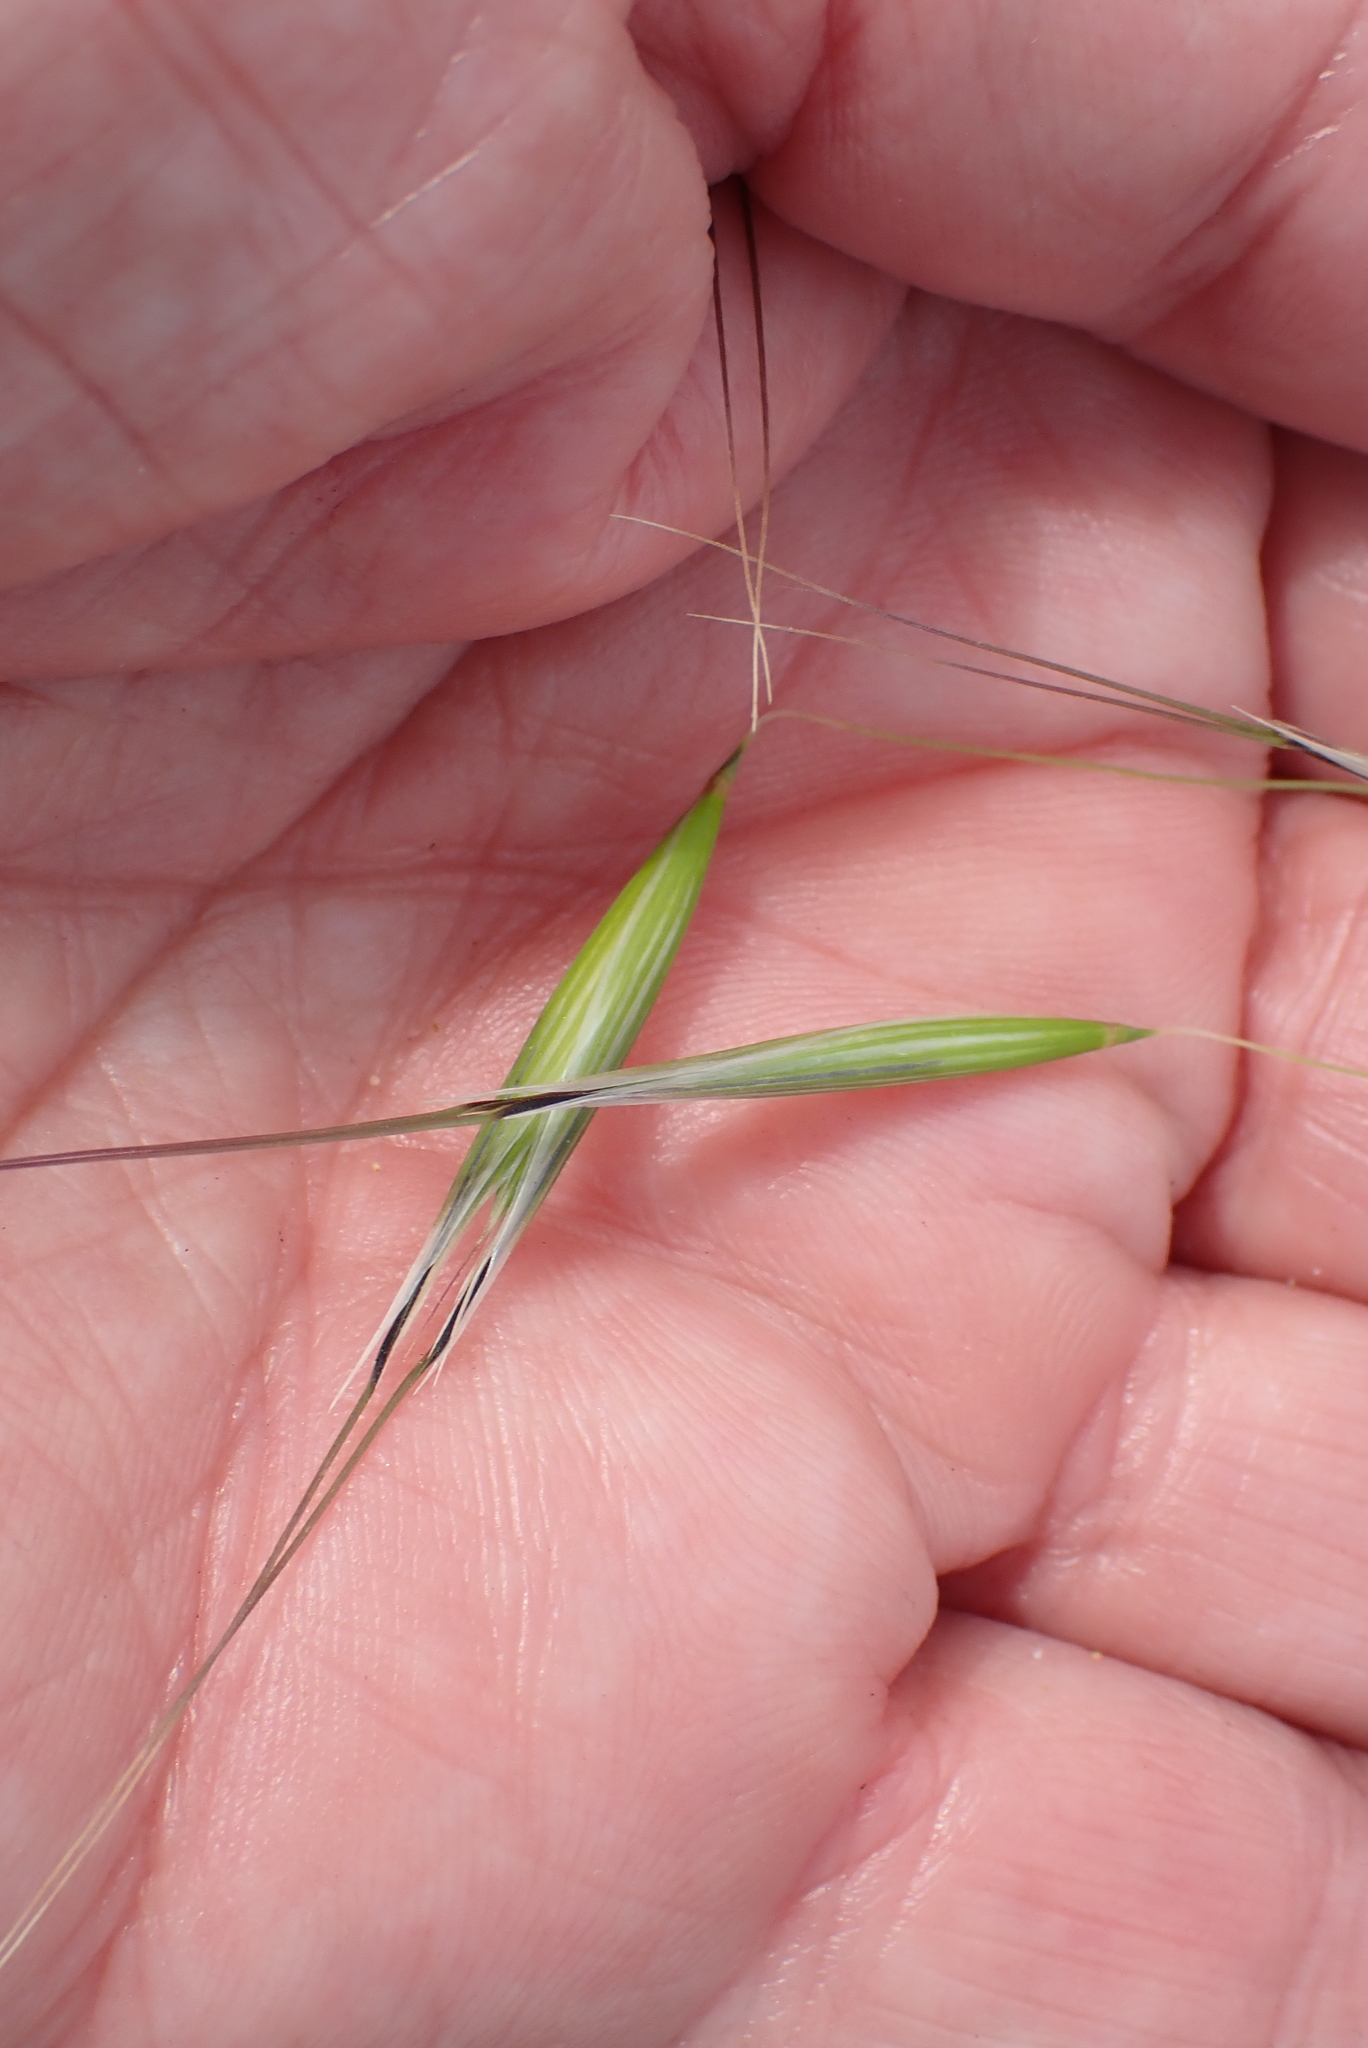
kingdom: Plantae
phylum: Tracheophyta
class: Liliopsida
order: Poales
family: Poaceae
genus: Avena
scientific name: Avena barbata
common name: Slender oat
